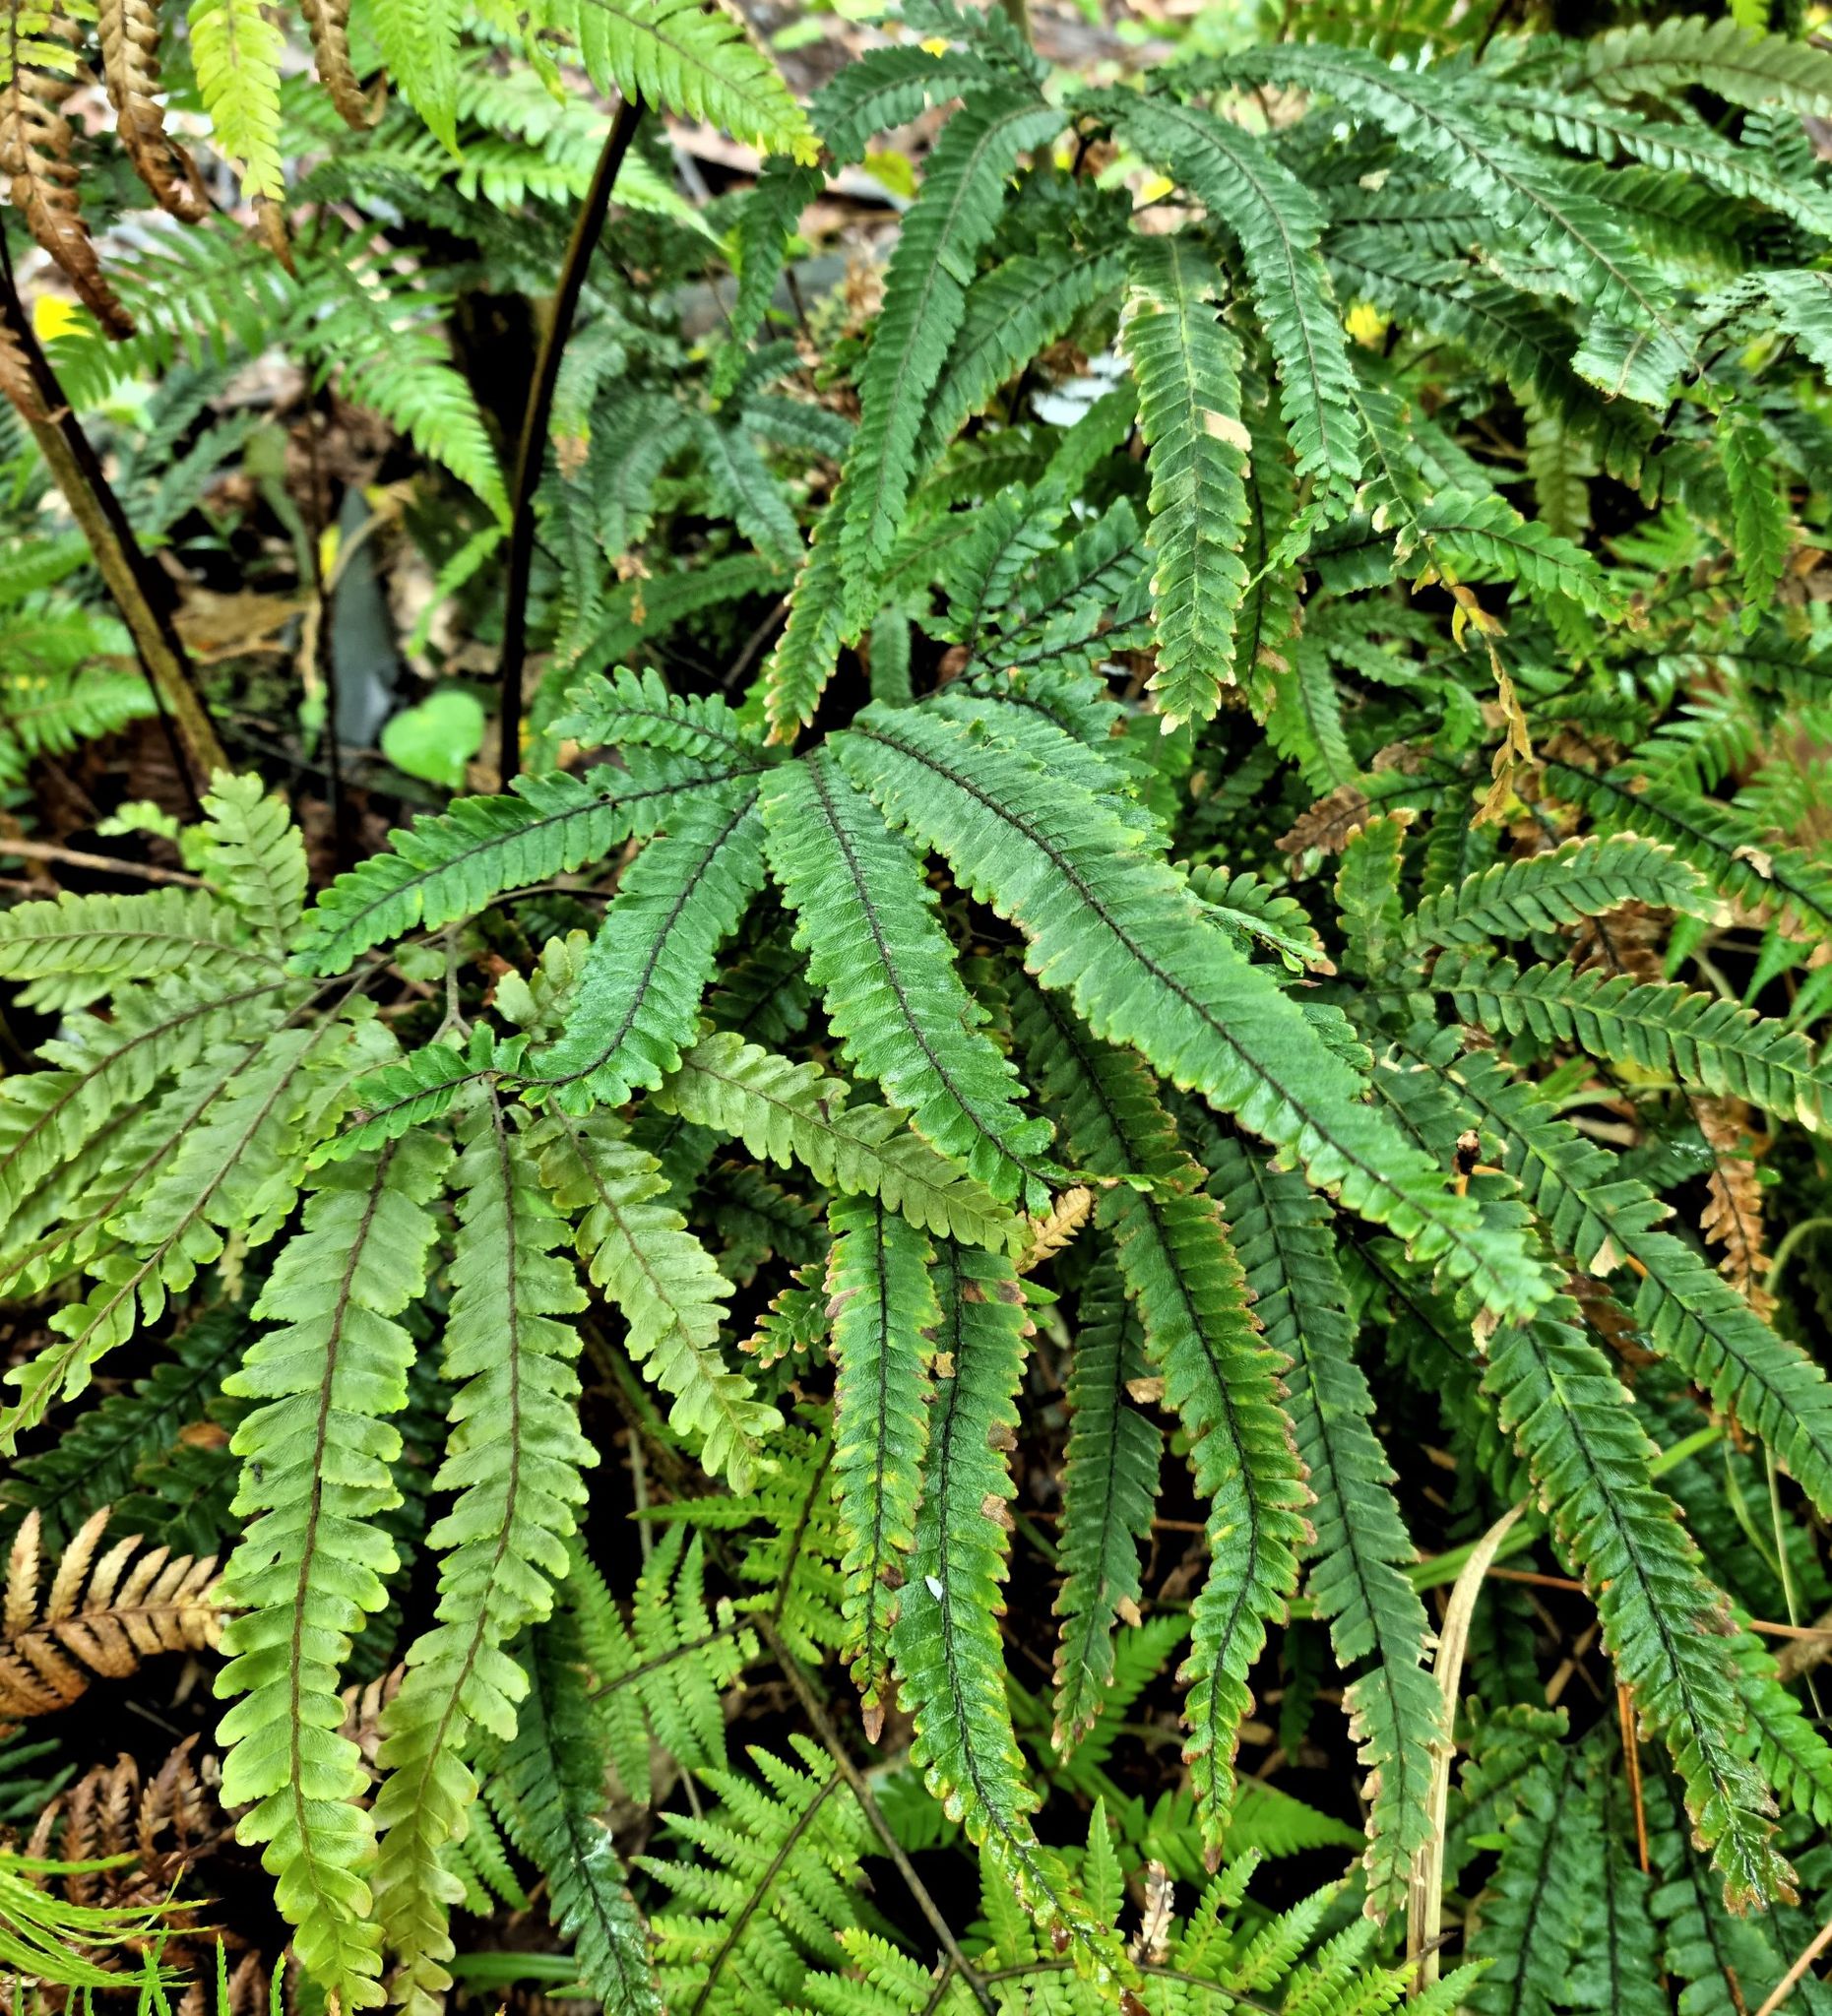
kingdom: Plantae
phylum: Tracheophyta
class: Polypodiopsida
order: Polypodiales
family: Pteridaceae
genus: Adiantum
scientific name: Adiantum hispidulum
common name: Rough maidenhair
